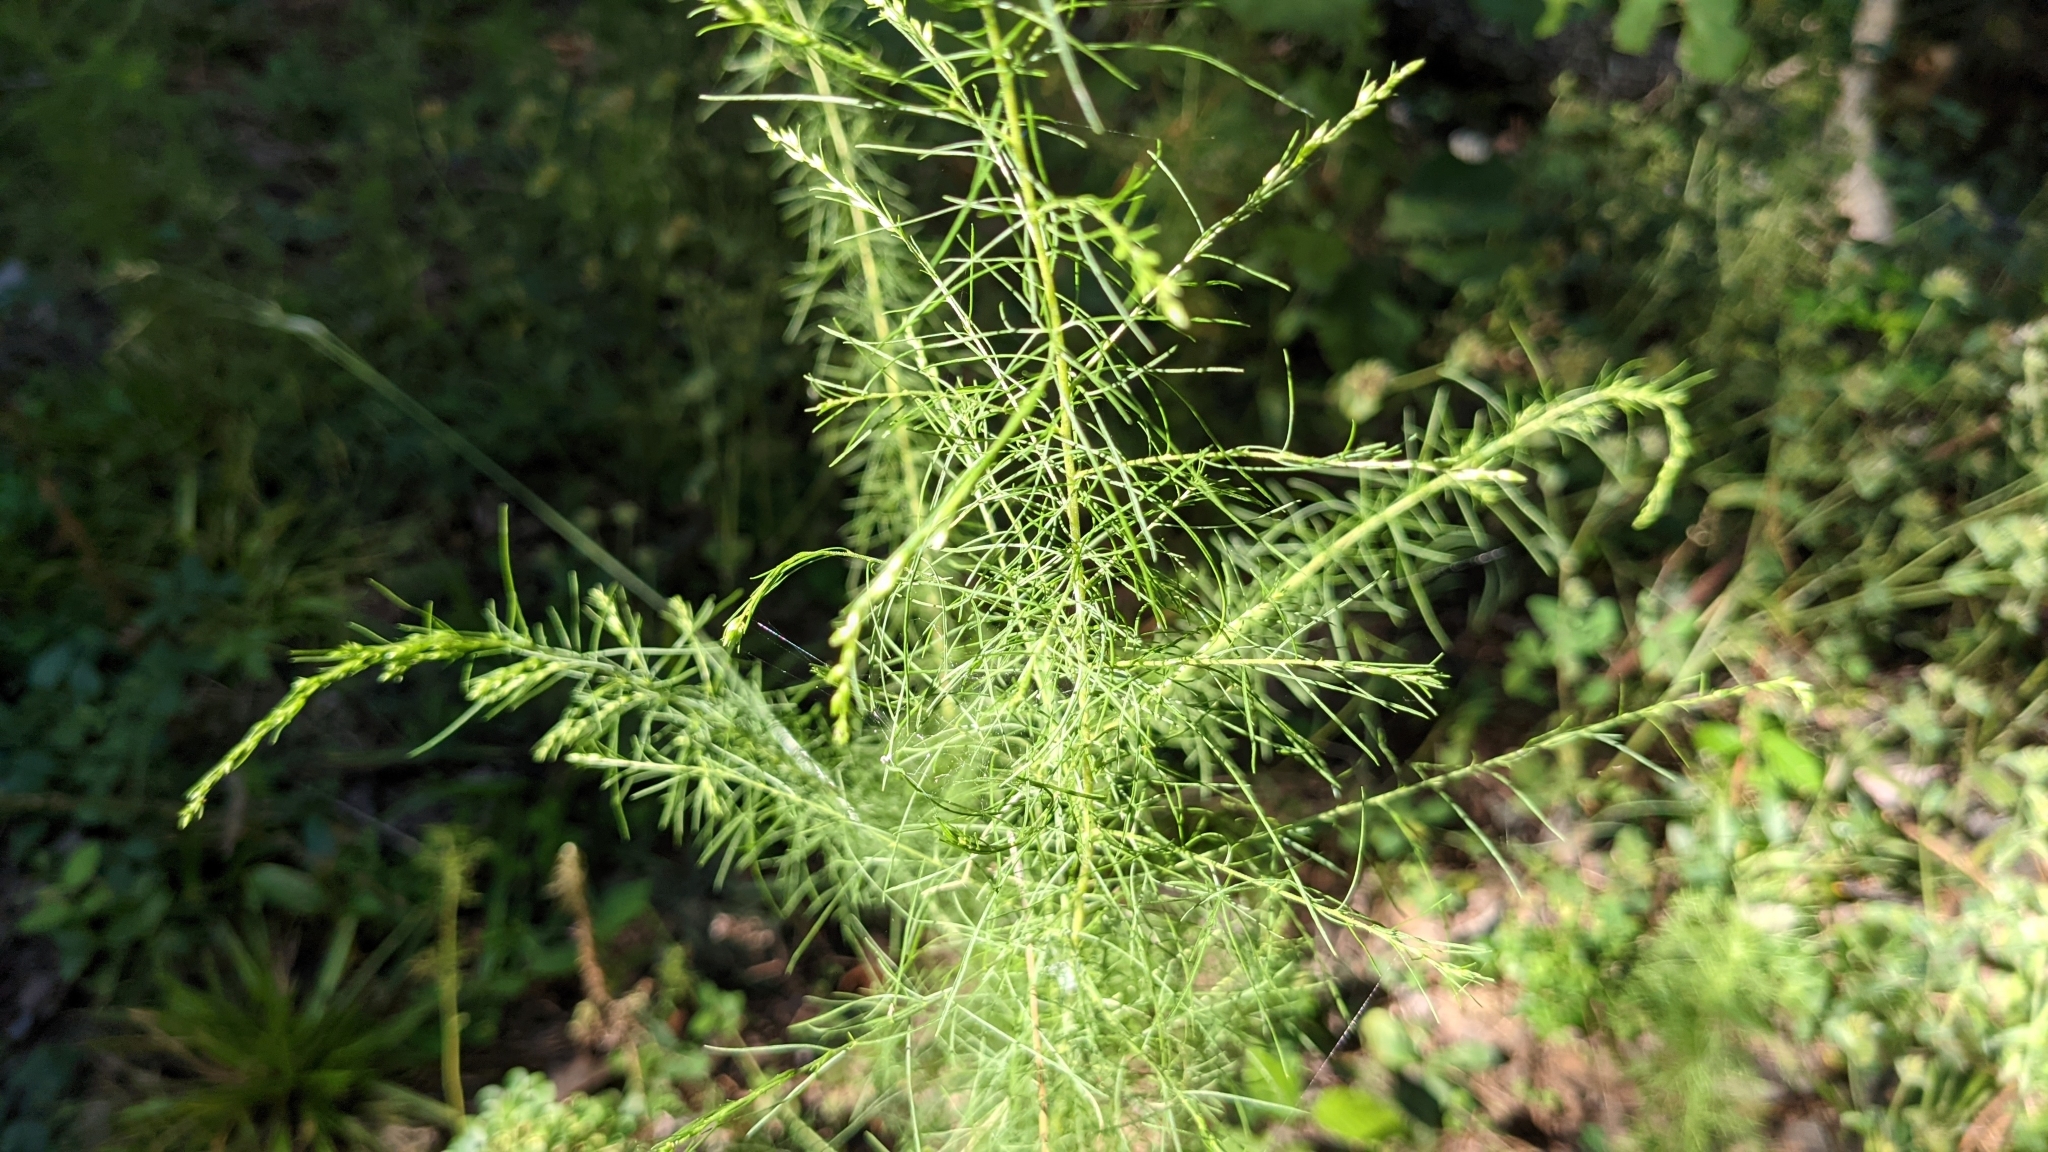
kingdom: Plantae
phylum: Tracheophyta
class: Magnoliopsida
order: Asterales
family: Asteraceae
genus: Eupatorium
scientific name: Eupatorium capillifolium
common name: Dog-fennel
